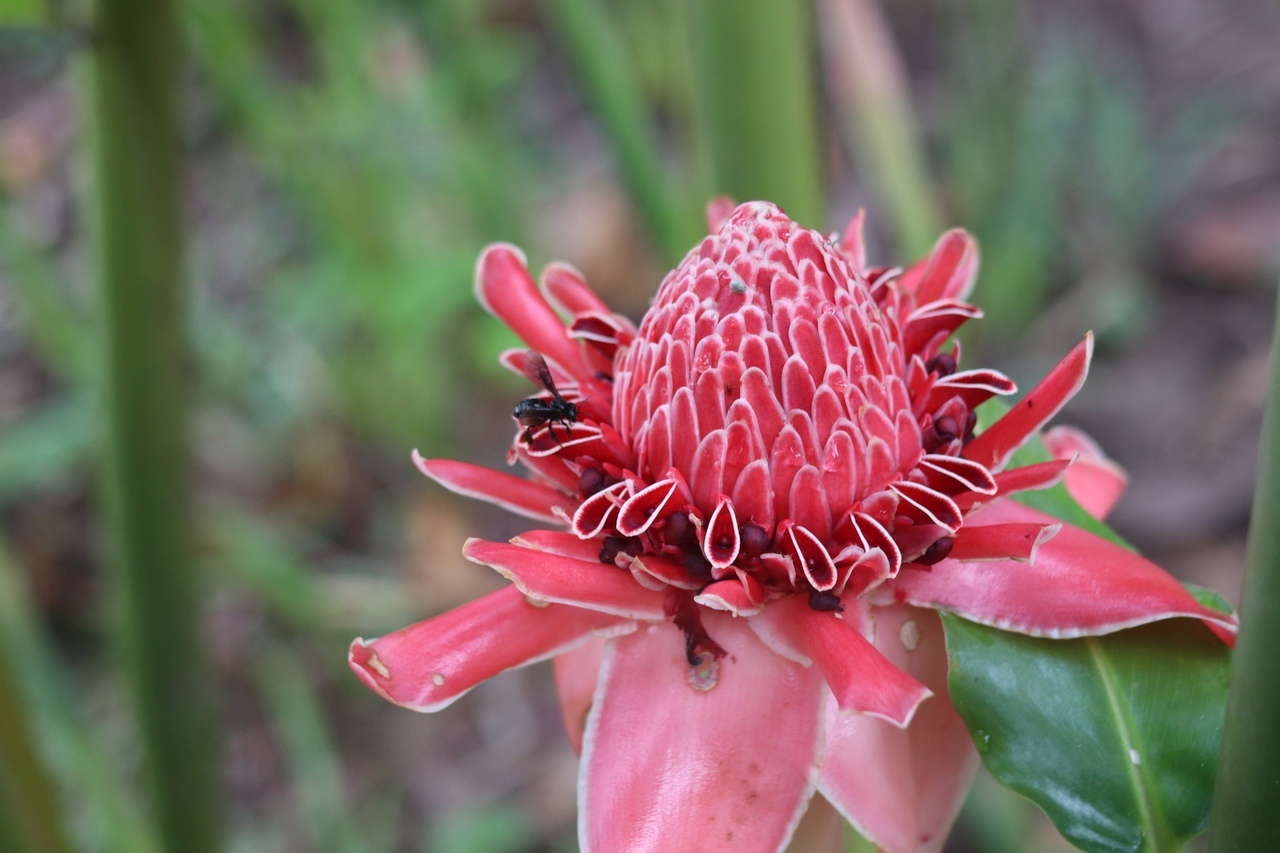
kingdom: Plantae
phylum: Tracheophyta
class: Liliopsida
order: Zingiberales
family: Zingiberaceae
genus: Etlingera
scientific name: Etlingera elatior
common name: Philippine waxflower
